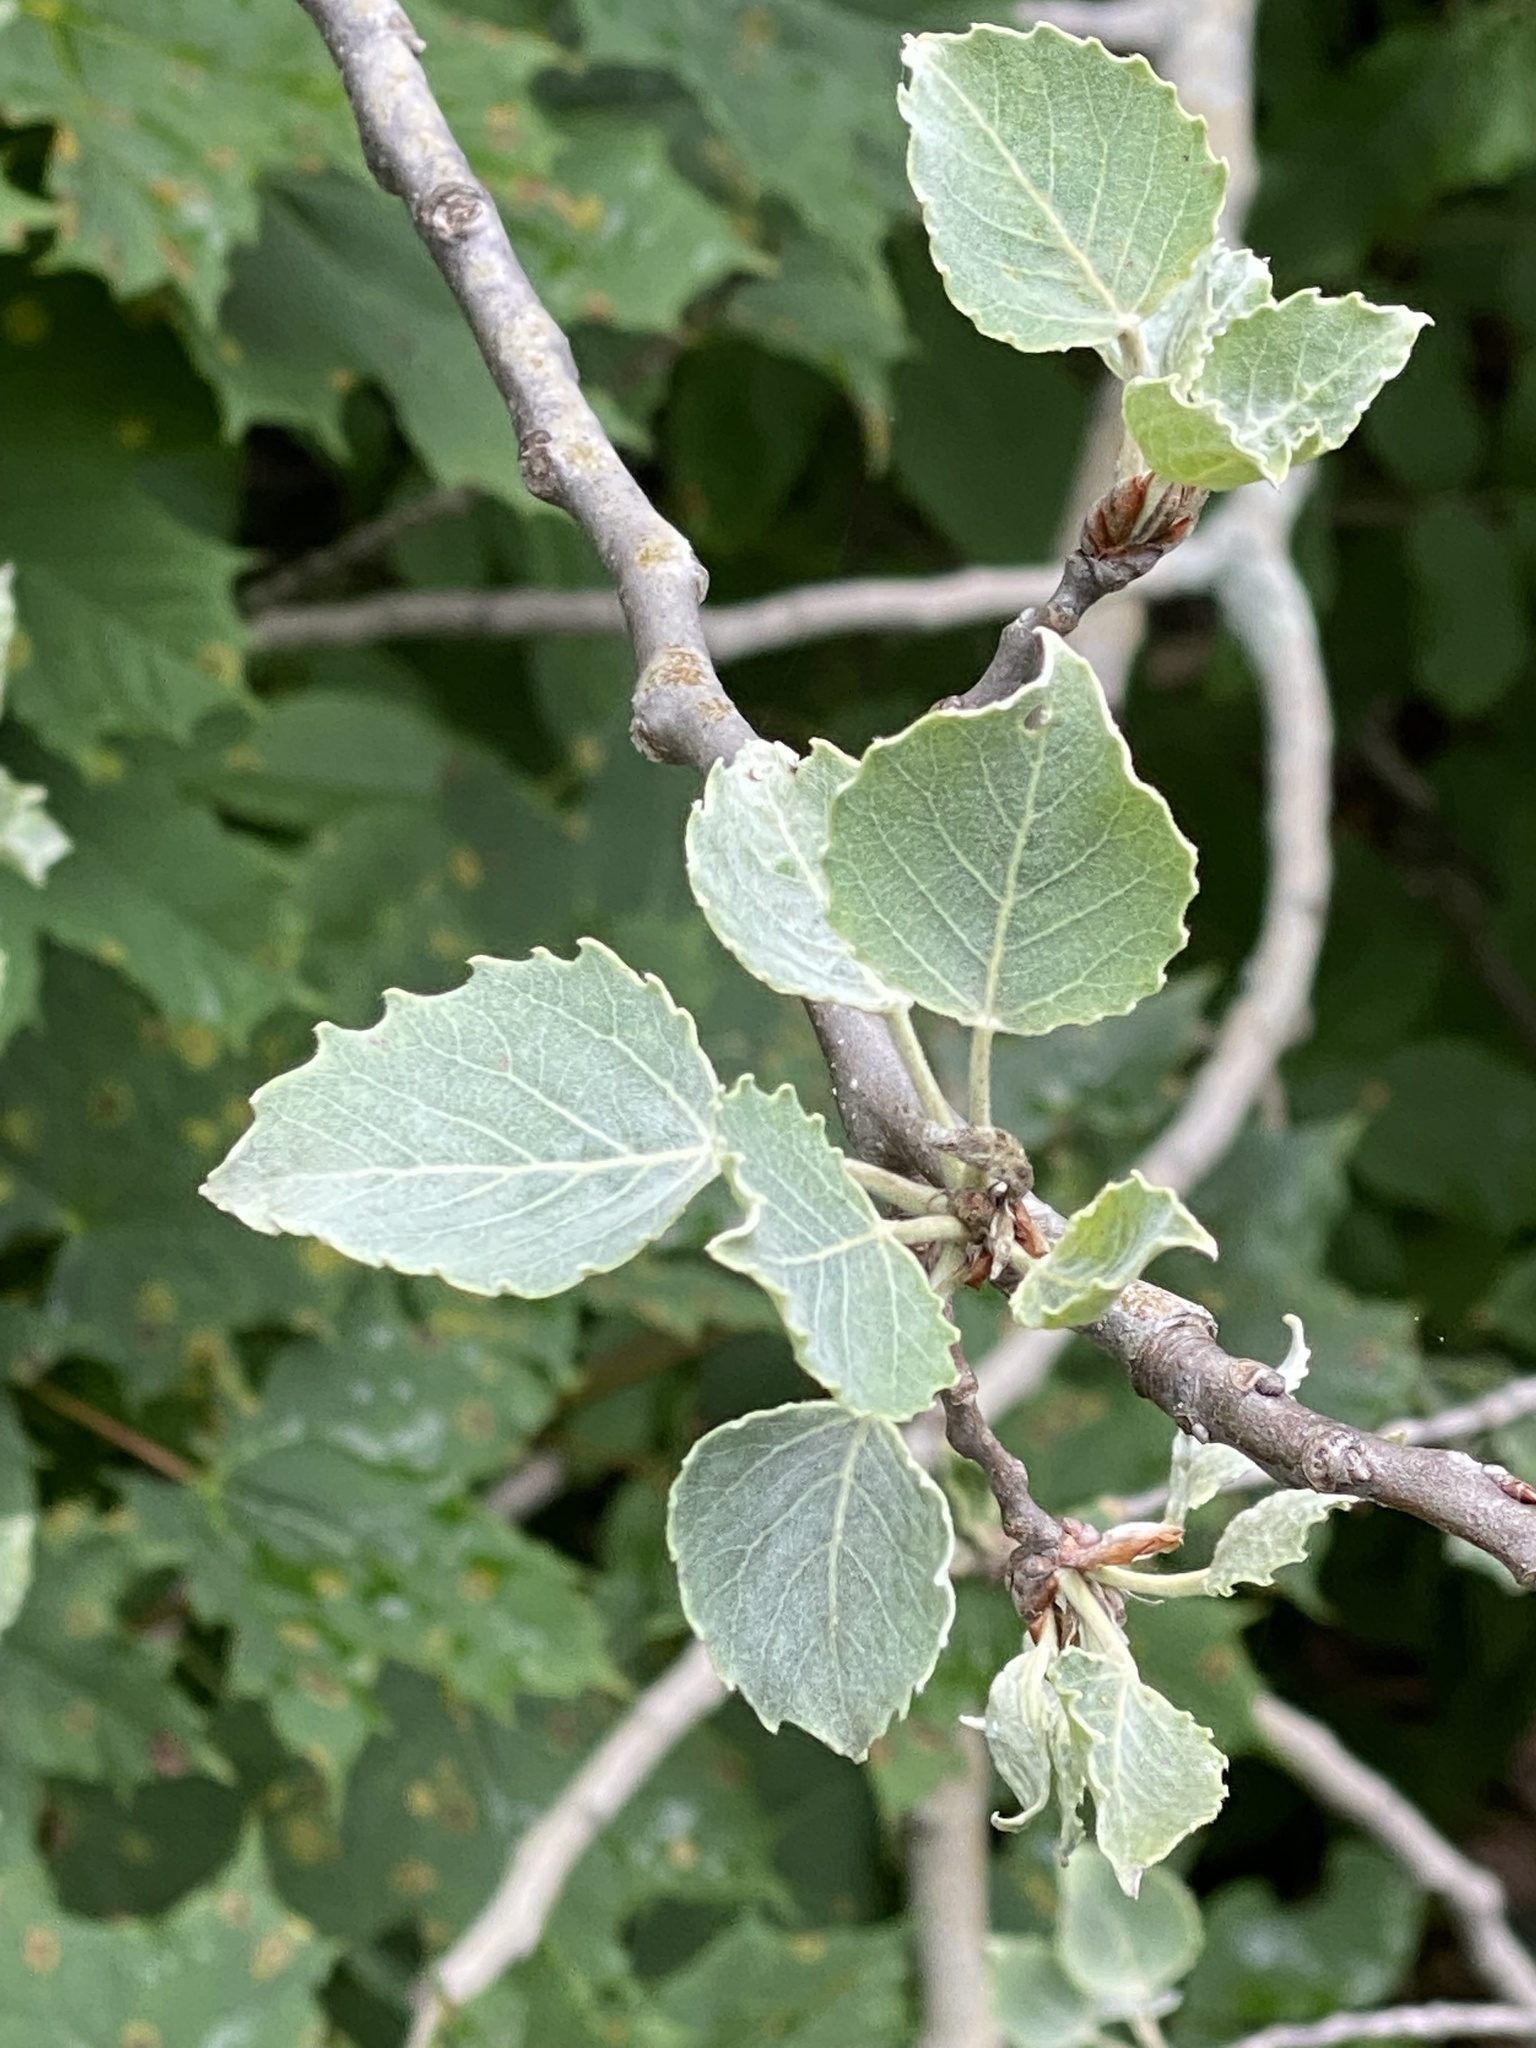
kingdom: Plantae
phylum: Tracheophyta
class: Magnoliopsida
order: Malpighiales
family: Salicaceae
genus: Populus
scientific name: Populus grandidentata
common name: Bigtooth aspen
